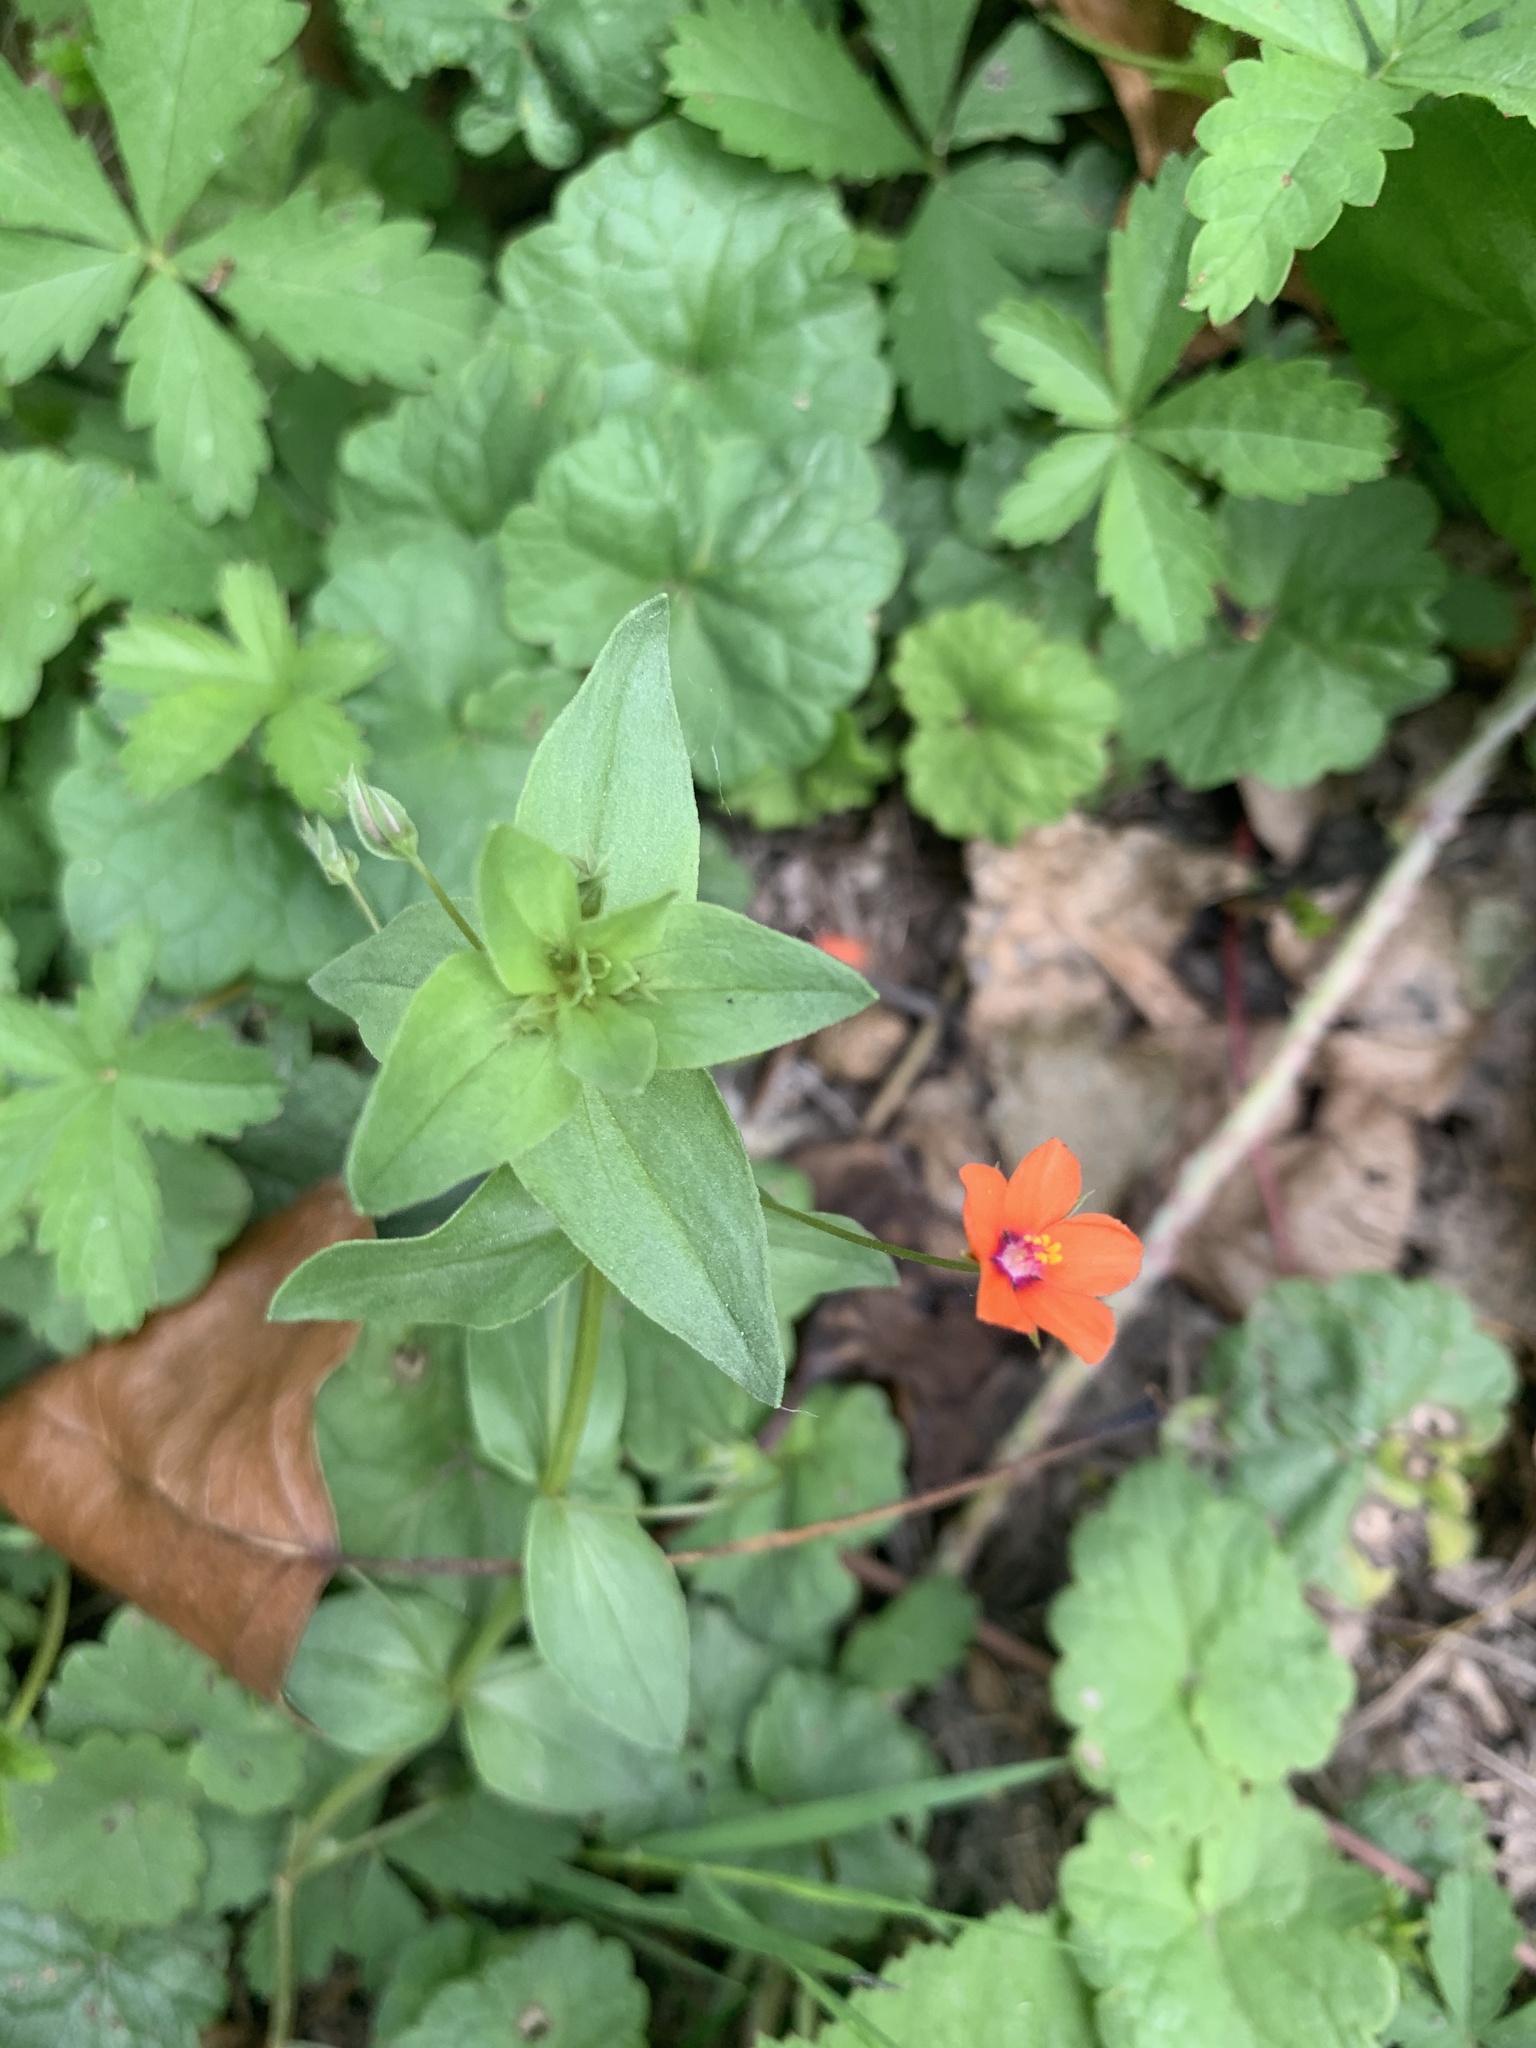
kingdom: Plantae
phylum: Tracheophyta
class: Magnoliopsida
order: Ericales
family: Primulaceae
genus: Lysimachia
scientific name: Lysimachia arvensis
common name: Scarlet pimpernel
